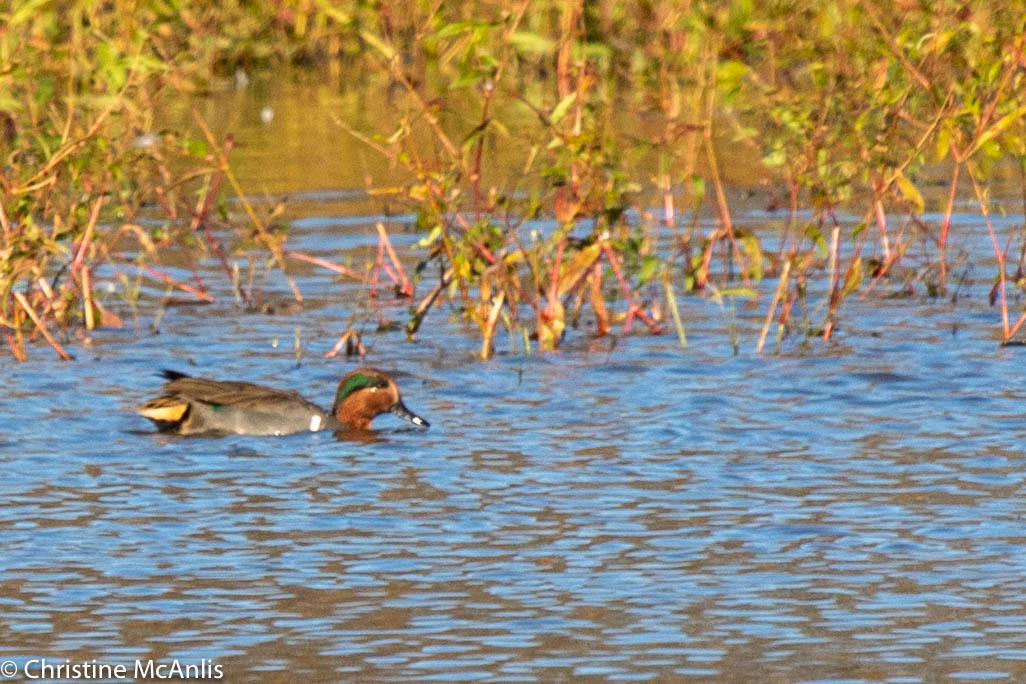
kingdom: Animalia
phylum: Chordata
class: Aves
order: Anseriformes
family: Anatidae
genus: Anas
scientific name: Anas crecca
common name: Eurasian teal
